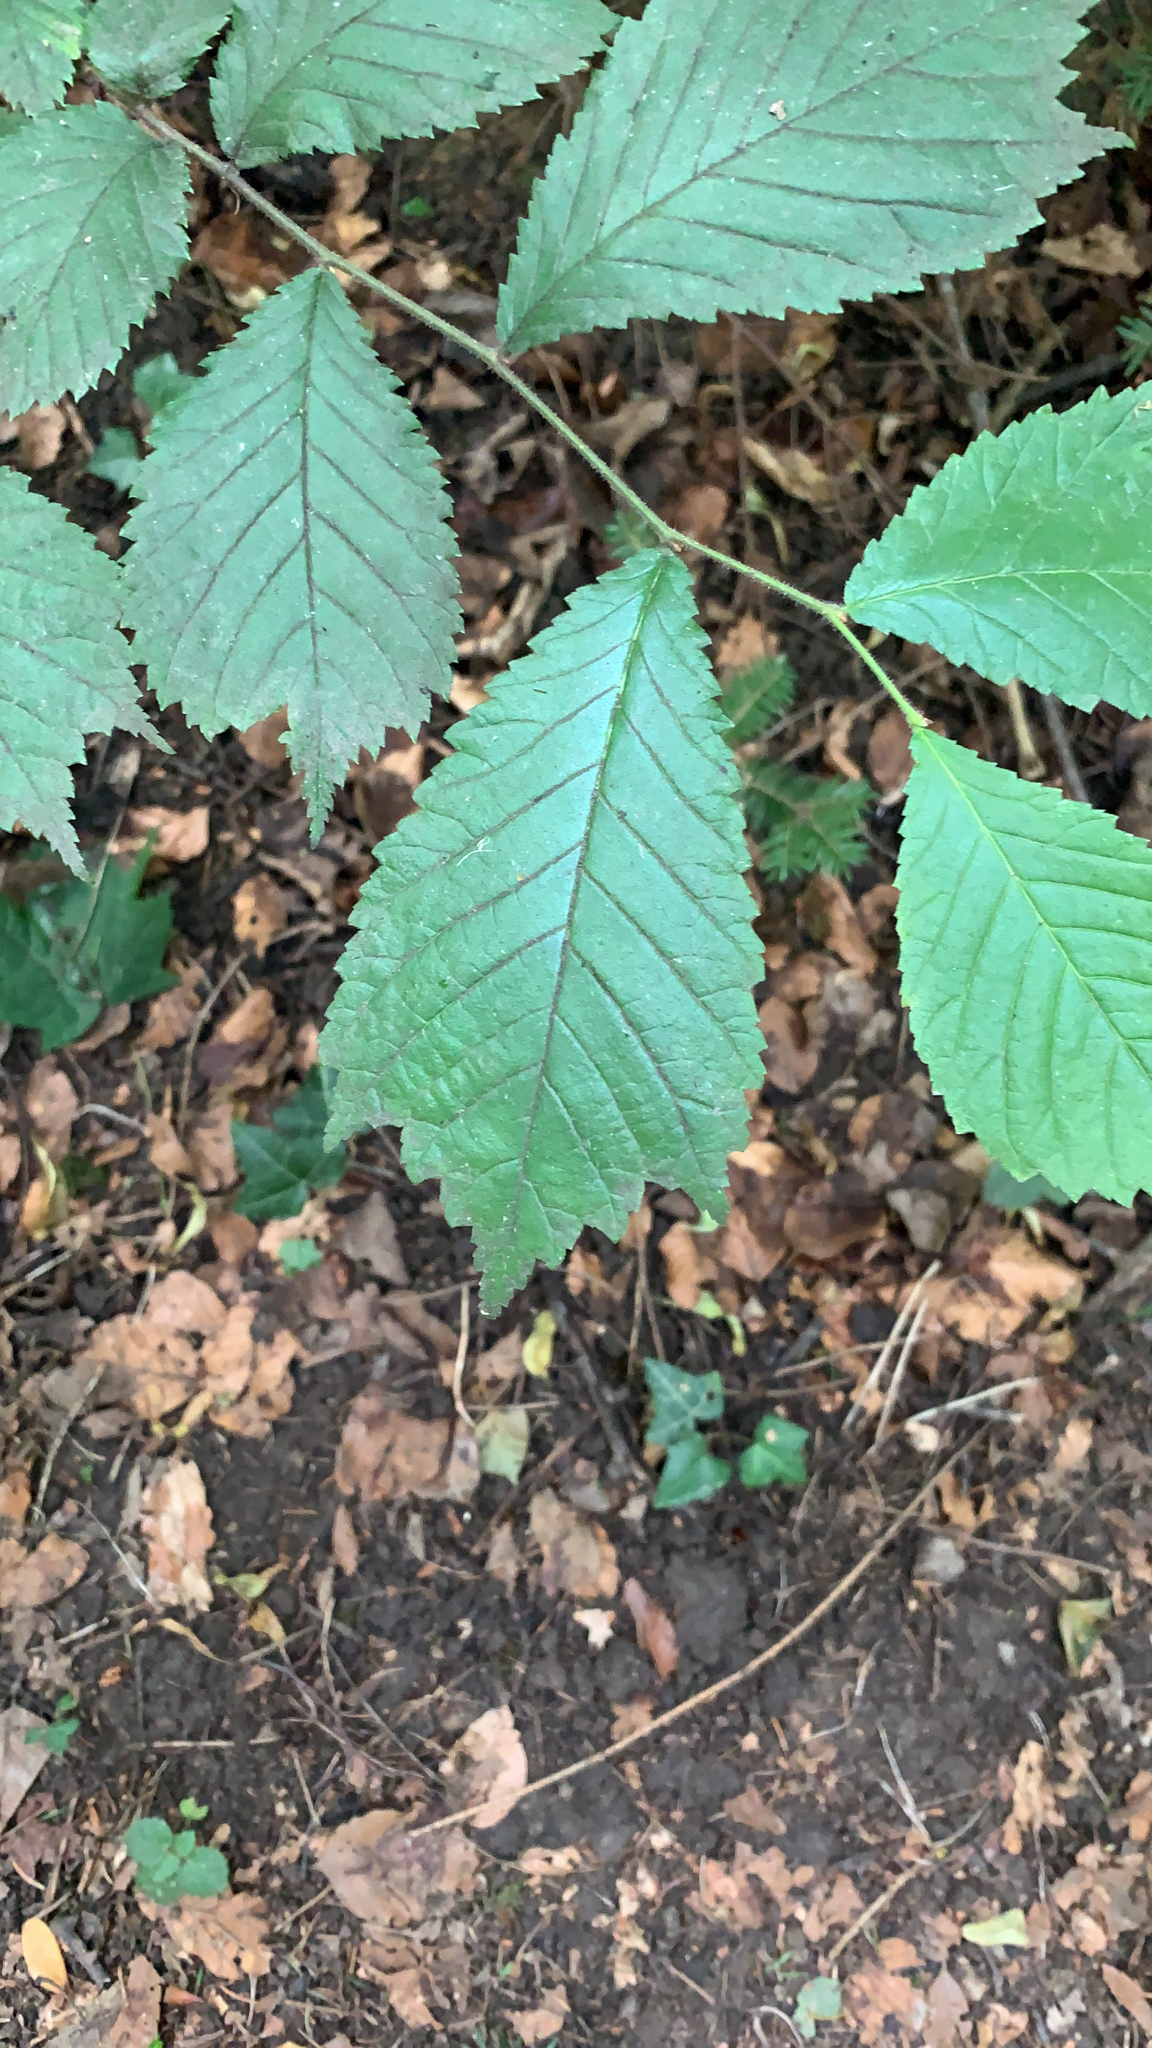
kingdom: Plantae
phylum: Tracheophyta
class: Magnoliopsida
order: Rosales
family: Ulmaceae
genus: Ulmus
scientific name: Ulmus glabra
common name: Wych elm
